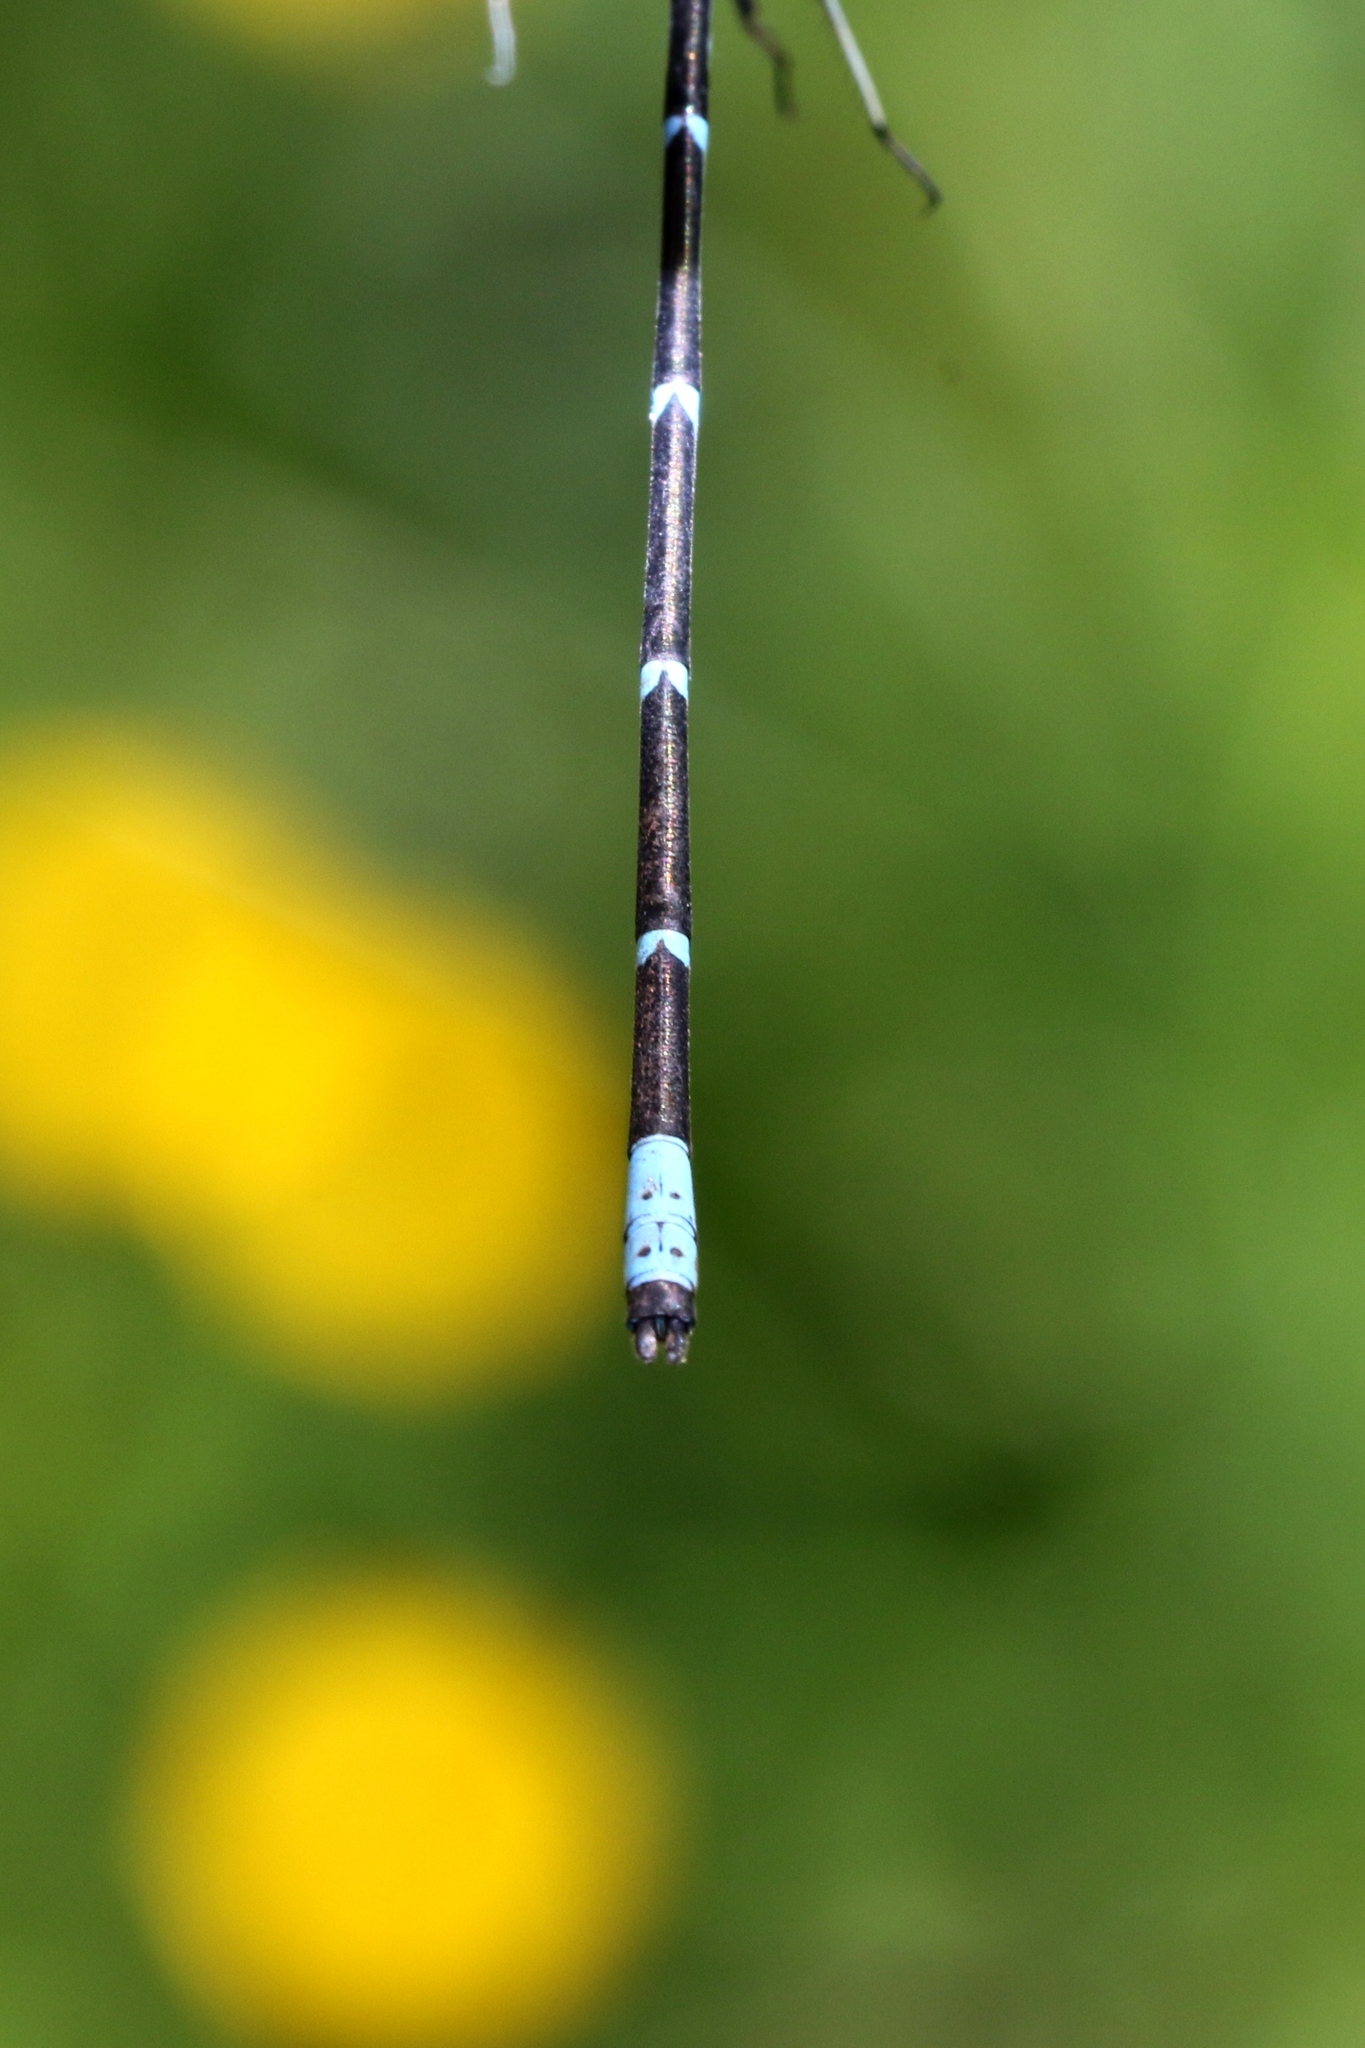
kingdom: Animalia
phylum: Arthropoda
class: Insecta
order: Odonata
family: Coenagrionidae
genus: Chromagrion
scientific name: Chromagrion conditum
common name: Aurora damsel
